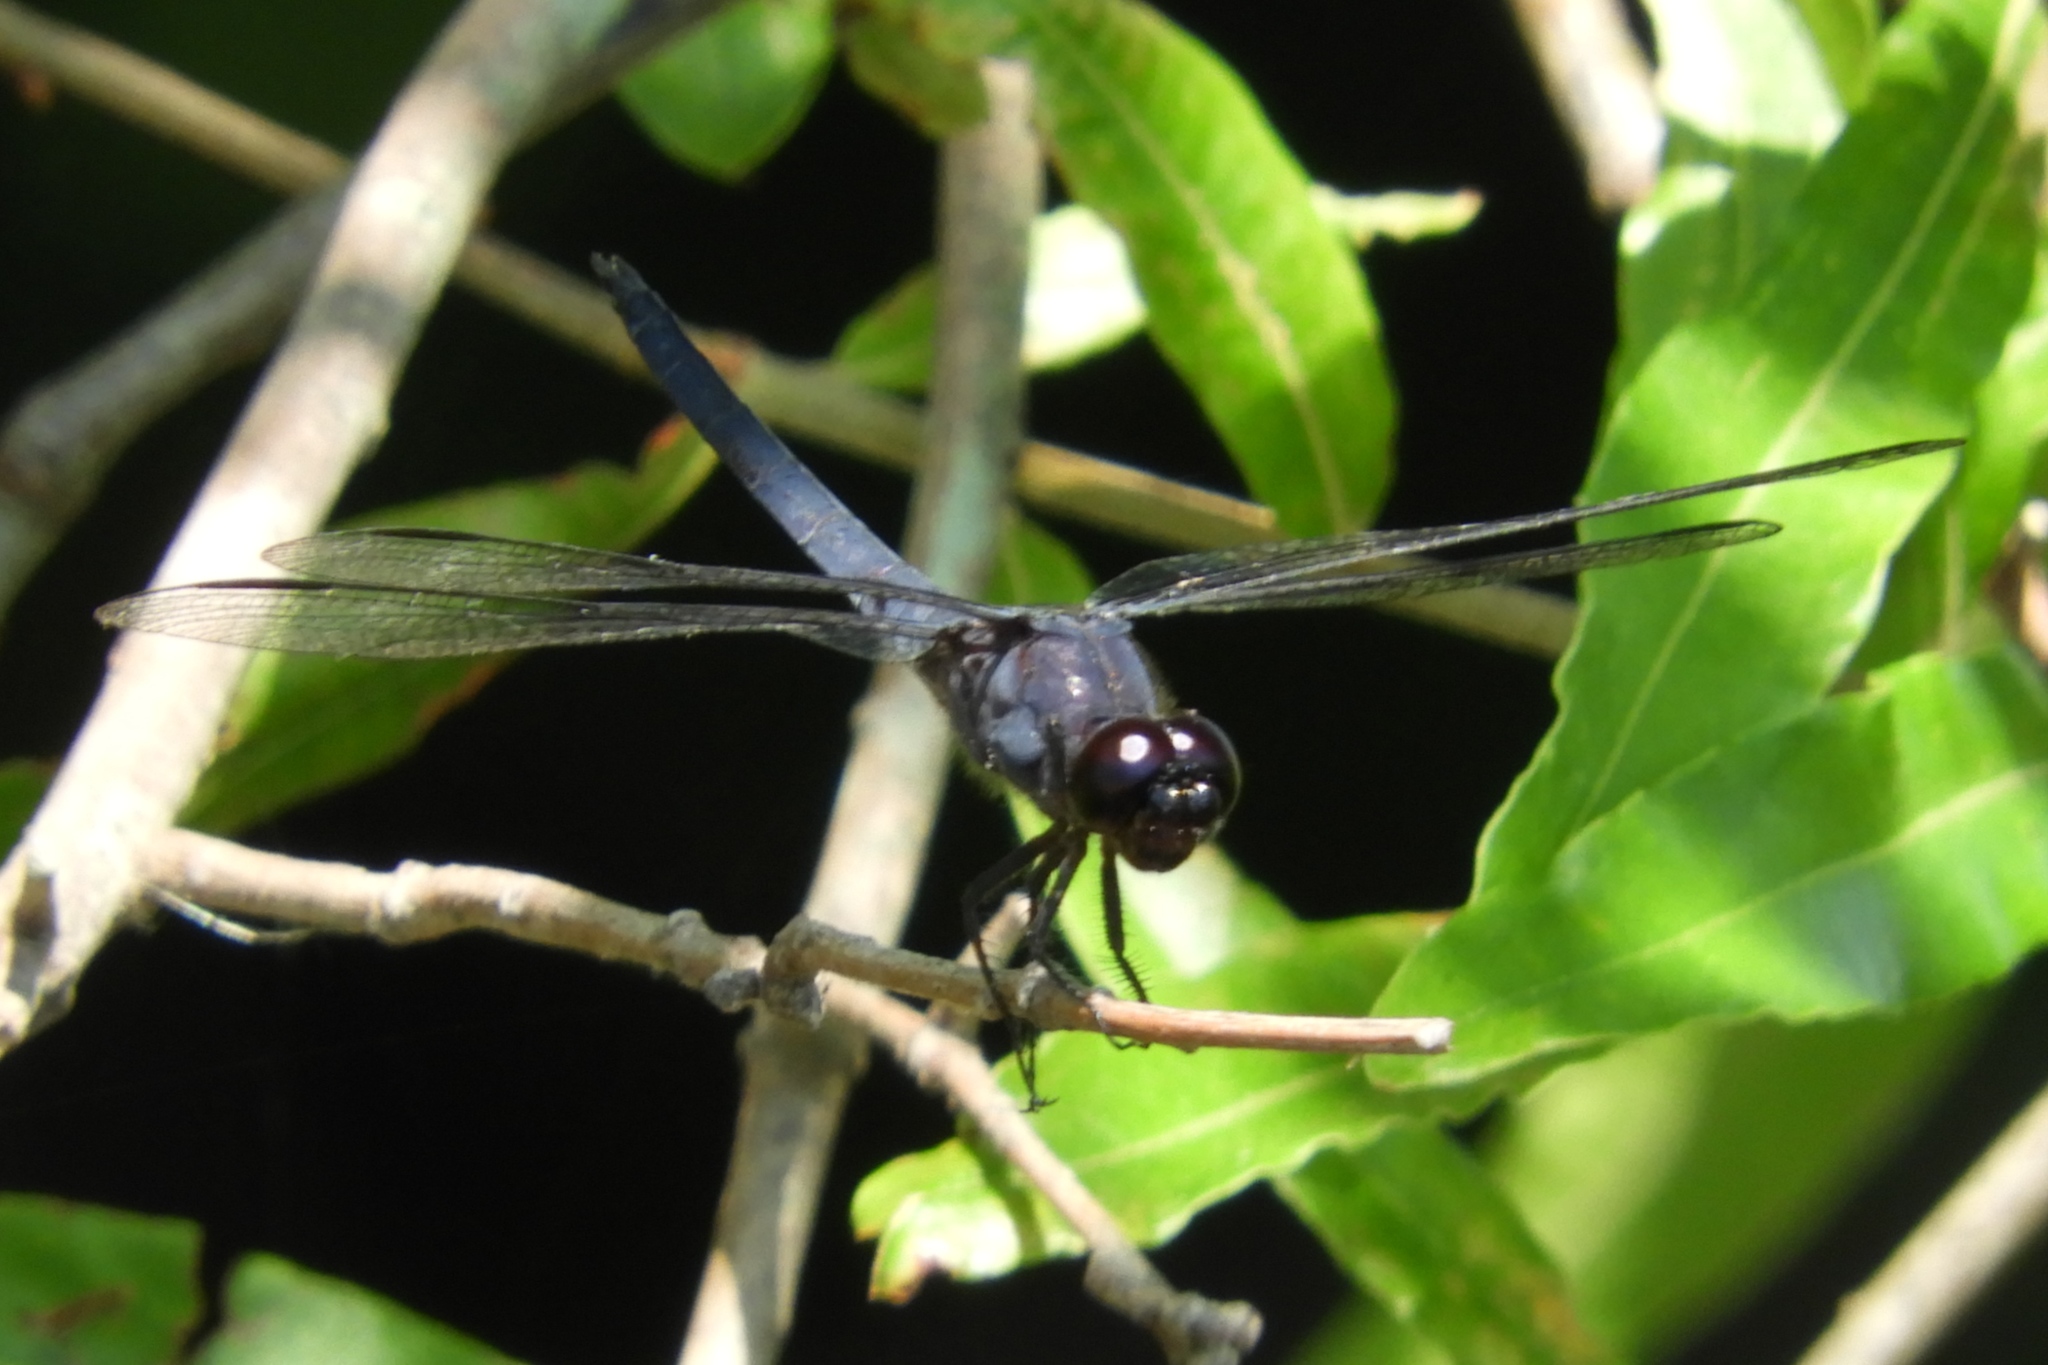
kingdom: Animalia
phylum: Arthropoda
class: Insecta
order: Odonata
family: Libellulidae
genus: Libellula
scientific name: Libellula incesta
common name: Slaty skimmer
